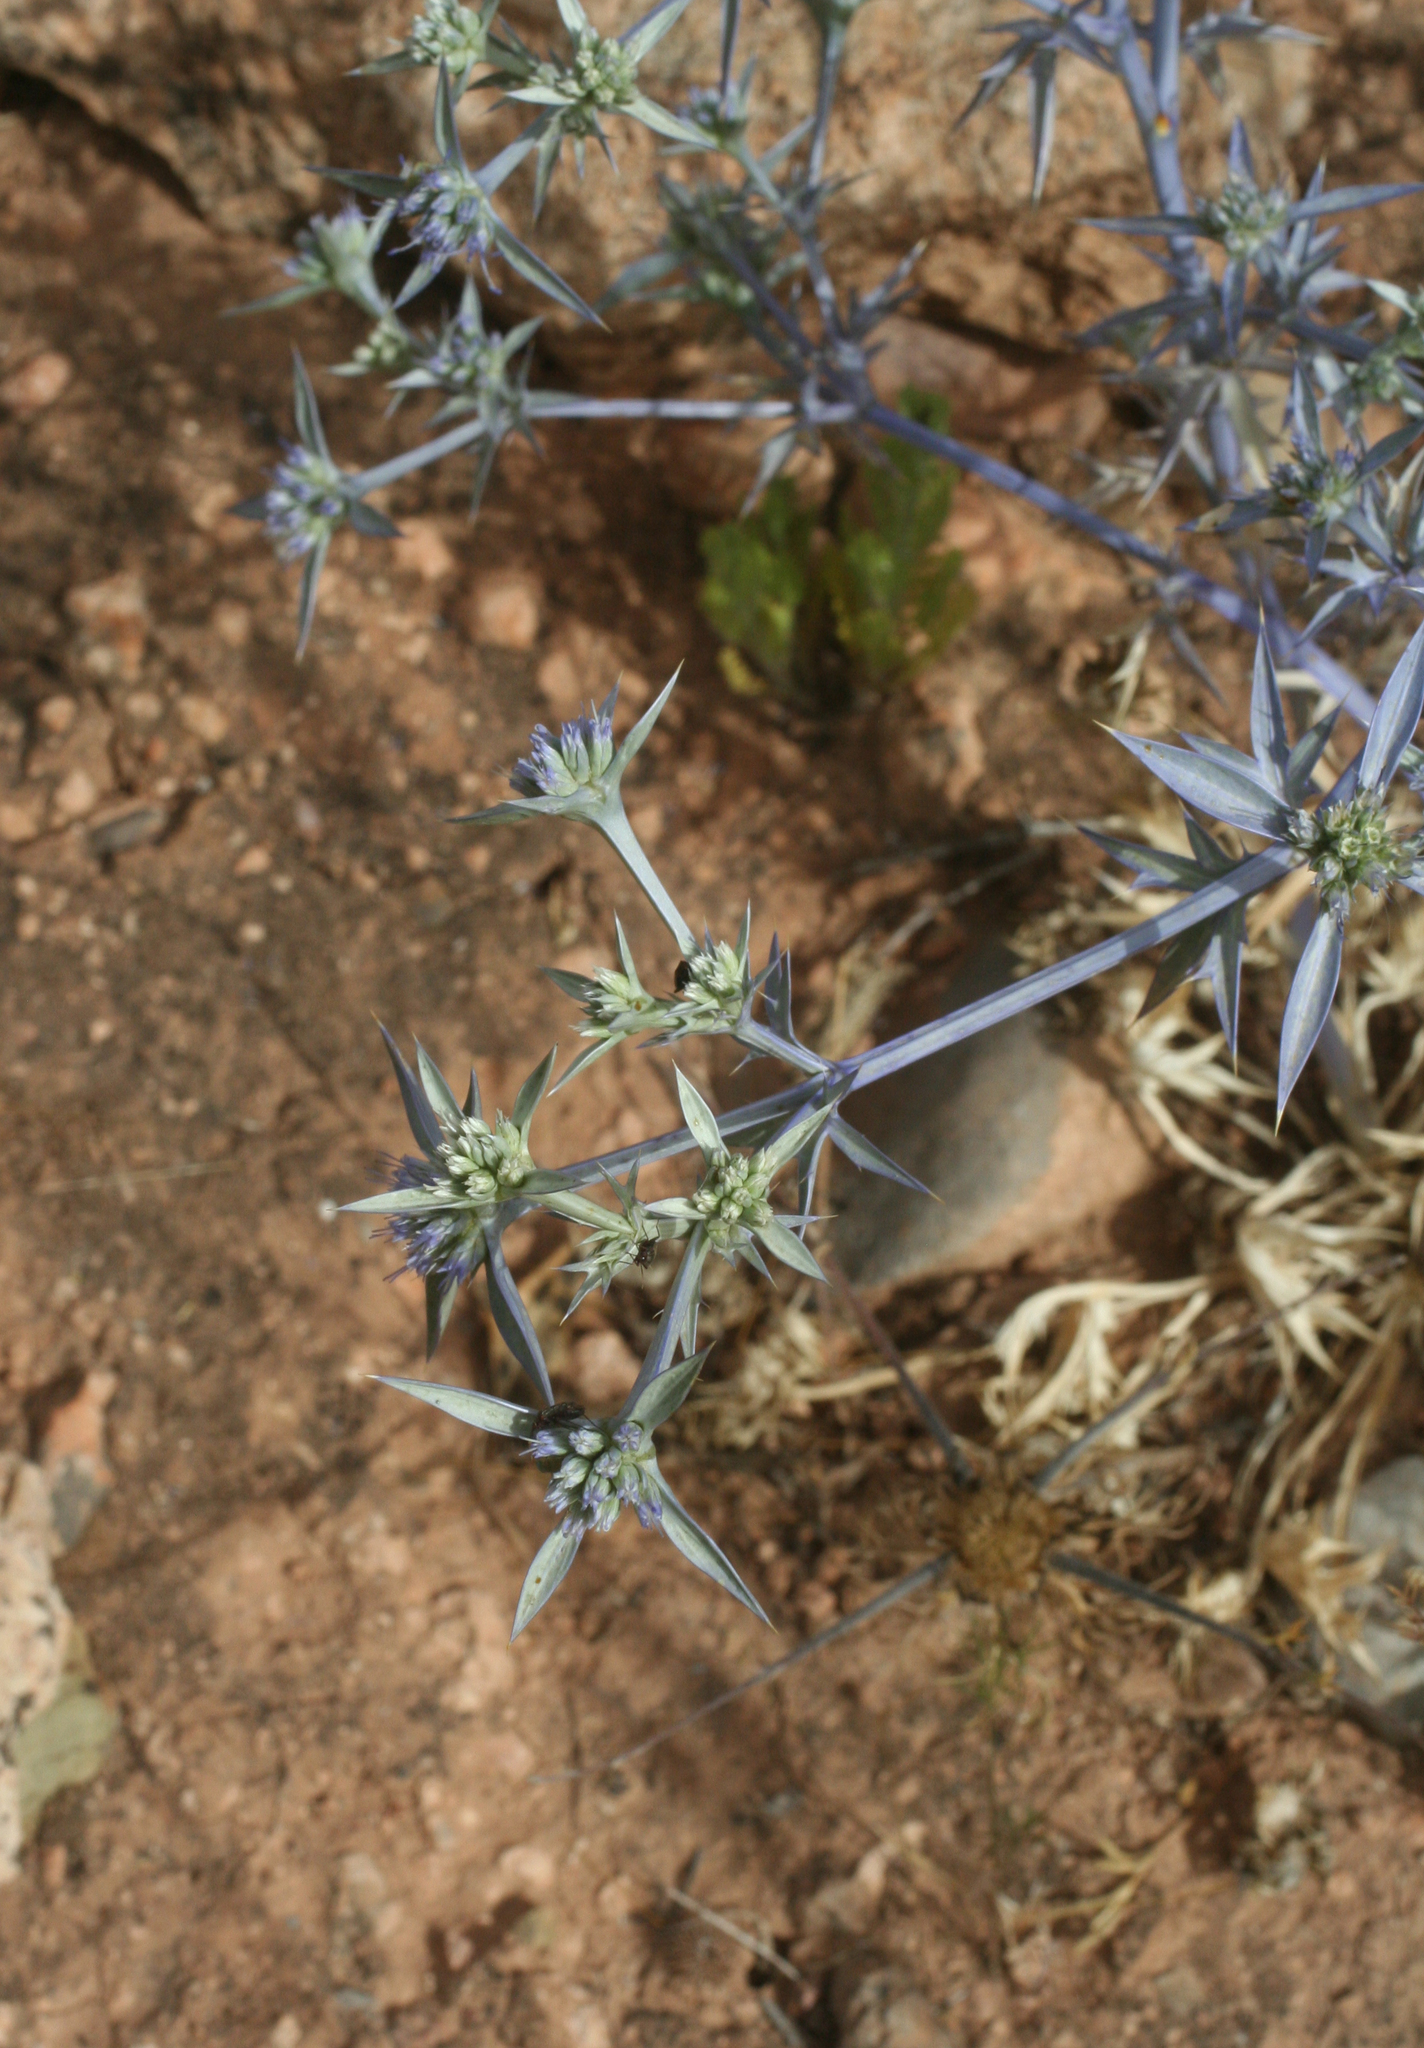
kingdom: Plantae
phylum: Tracheophyta
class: Magnoliopsida
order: Apiales
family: Apiaceae
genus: Eryngium
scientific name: Eryngium triquetrum
